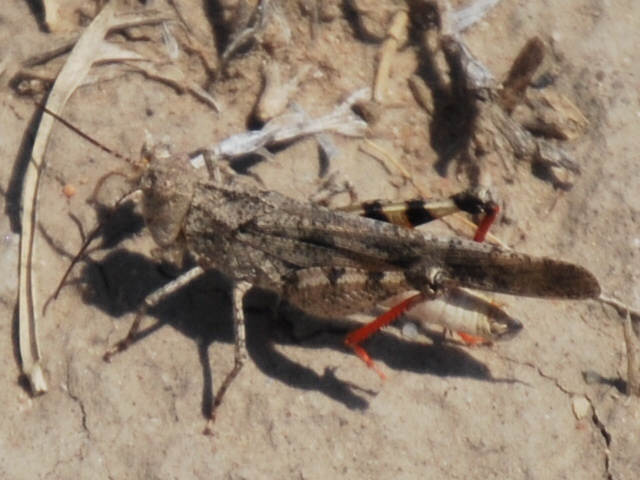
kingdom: Animalia
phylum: Arthropoda
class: Insecta
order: Orthoptera
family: Acrididae
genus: Spharagemon
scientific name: Spharagemon collare
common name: Mottled sand grasshopper
